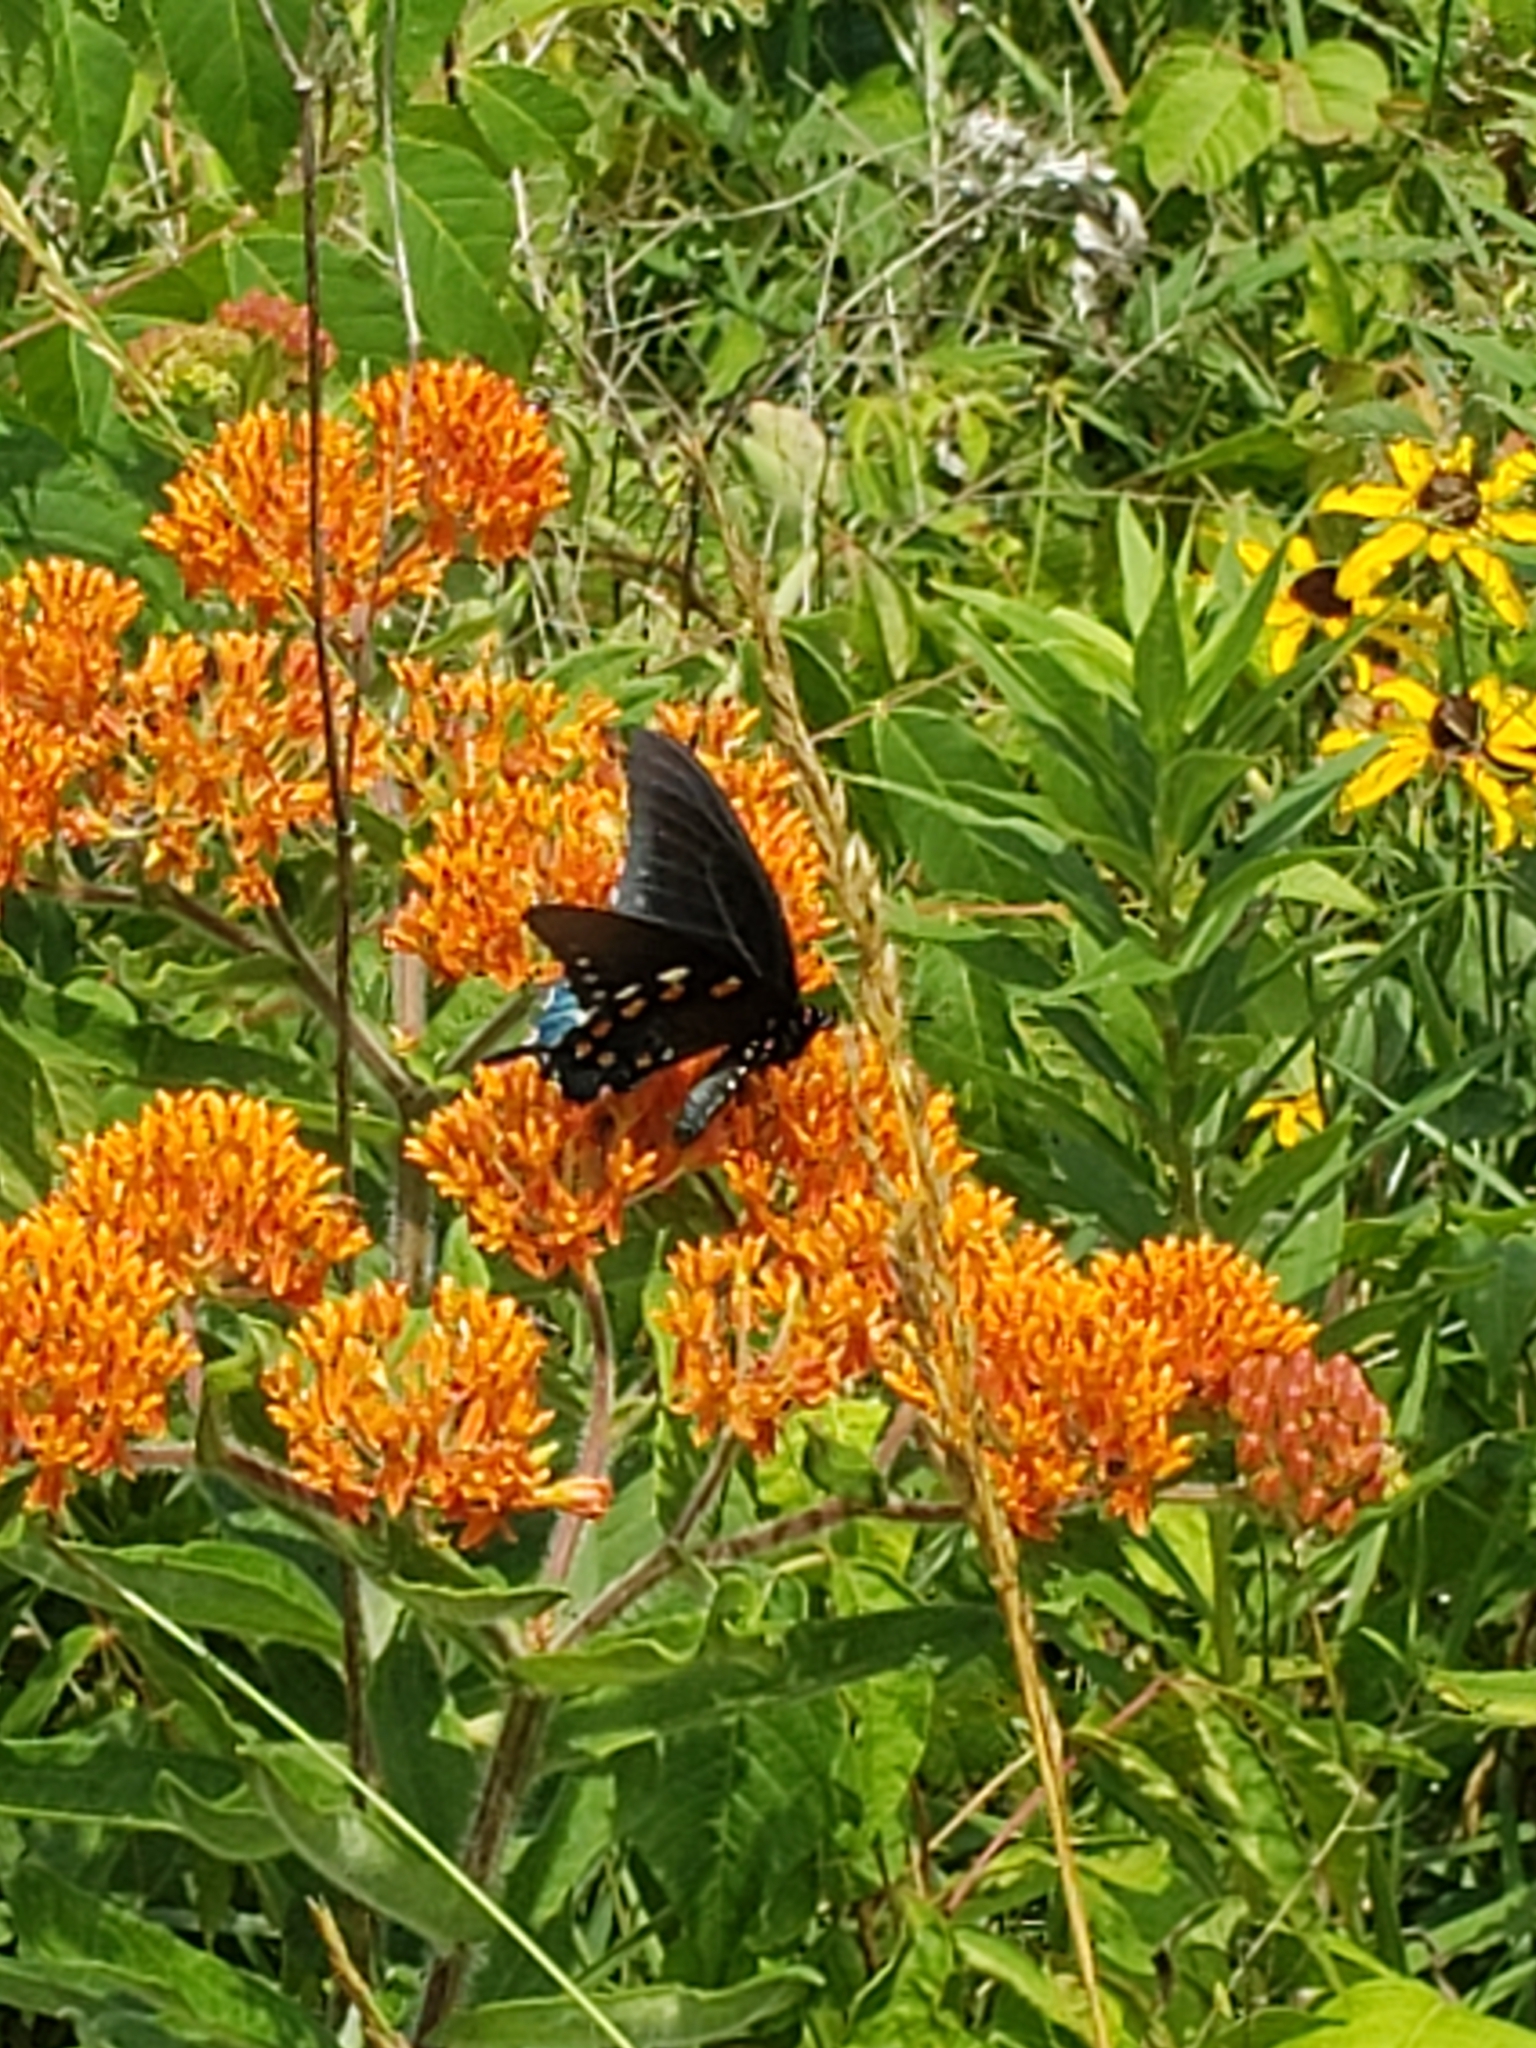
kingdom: Plantae
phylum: Tracheophyta
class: Magnoliopsida
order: Gentianales
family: Apocynaceae
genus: Asclepias
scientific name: Asclepias tuberosa
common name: Butterfly milkweed
